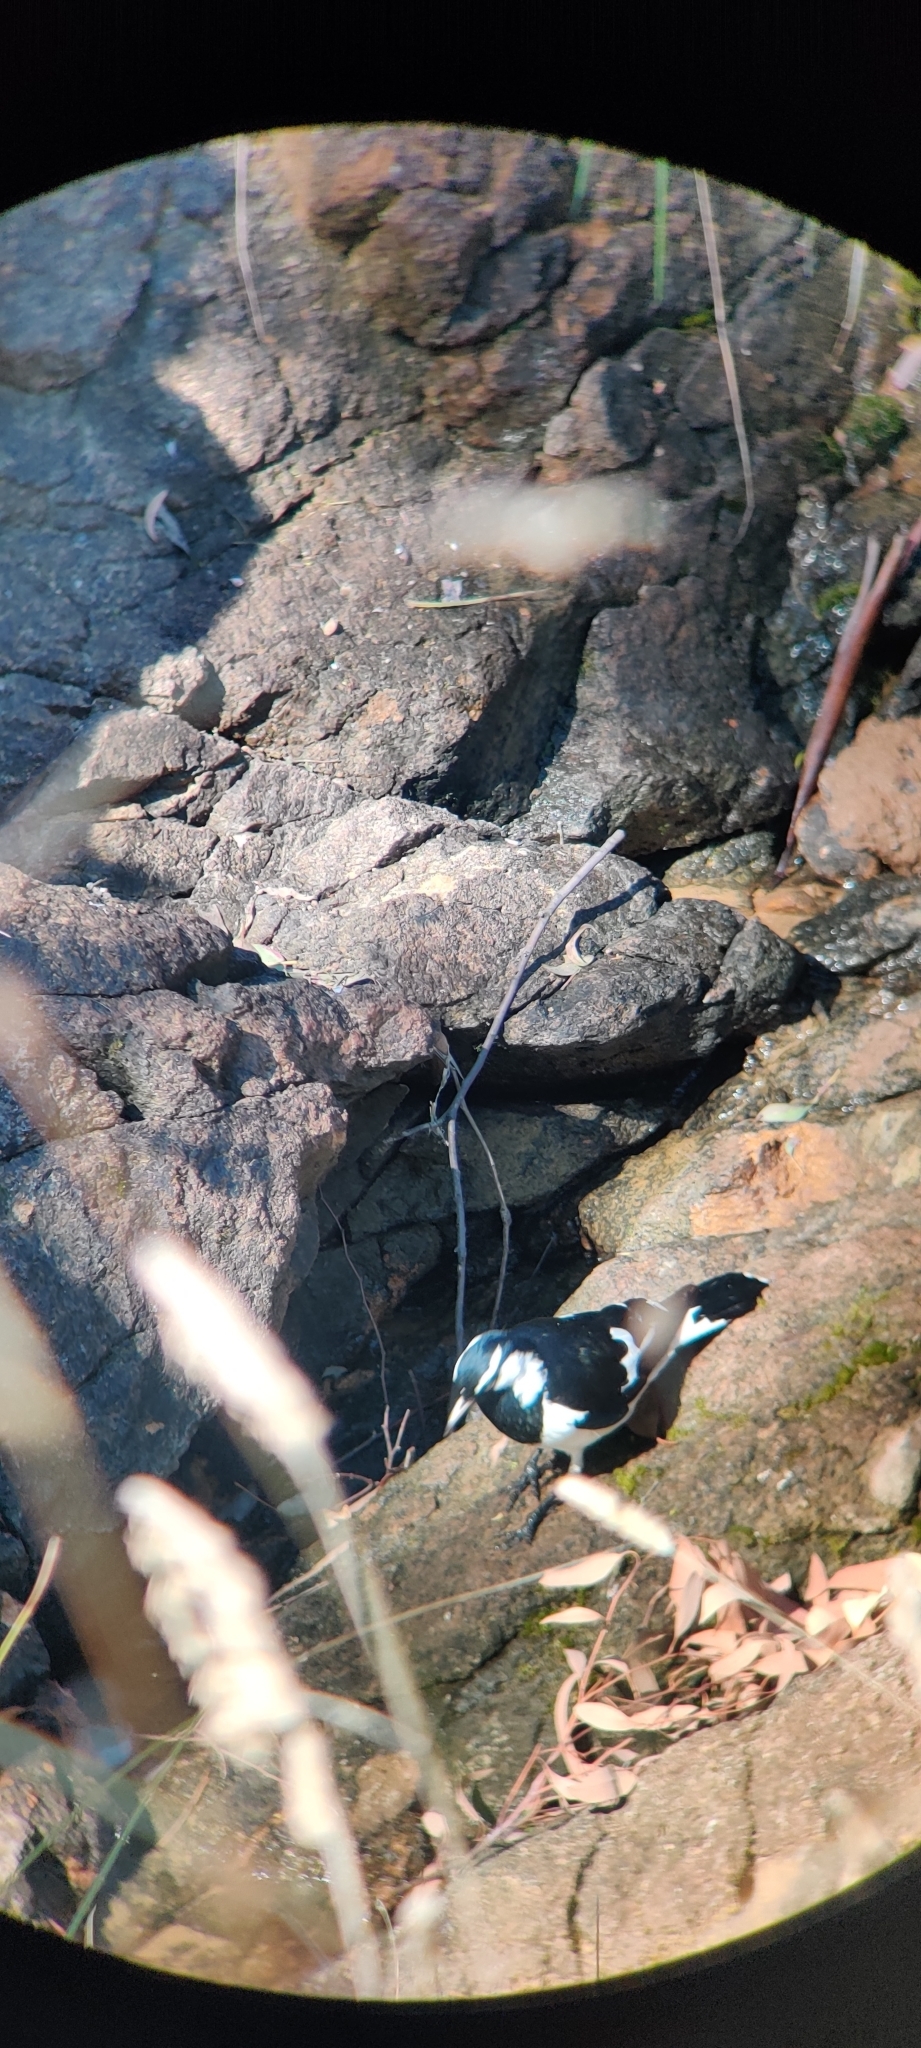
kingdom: Animalia
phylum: Chordata
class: Aves
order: Passeriformes
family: Monarchidae
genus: Grallina
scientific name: Grallina cyanoleuca
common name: Magpie-lark
